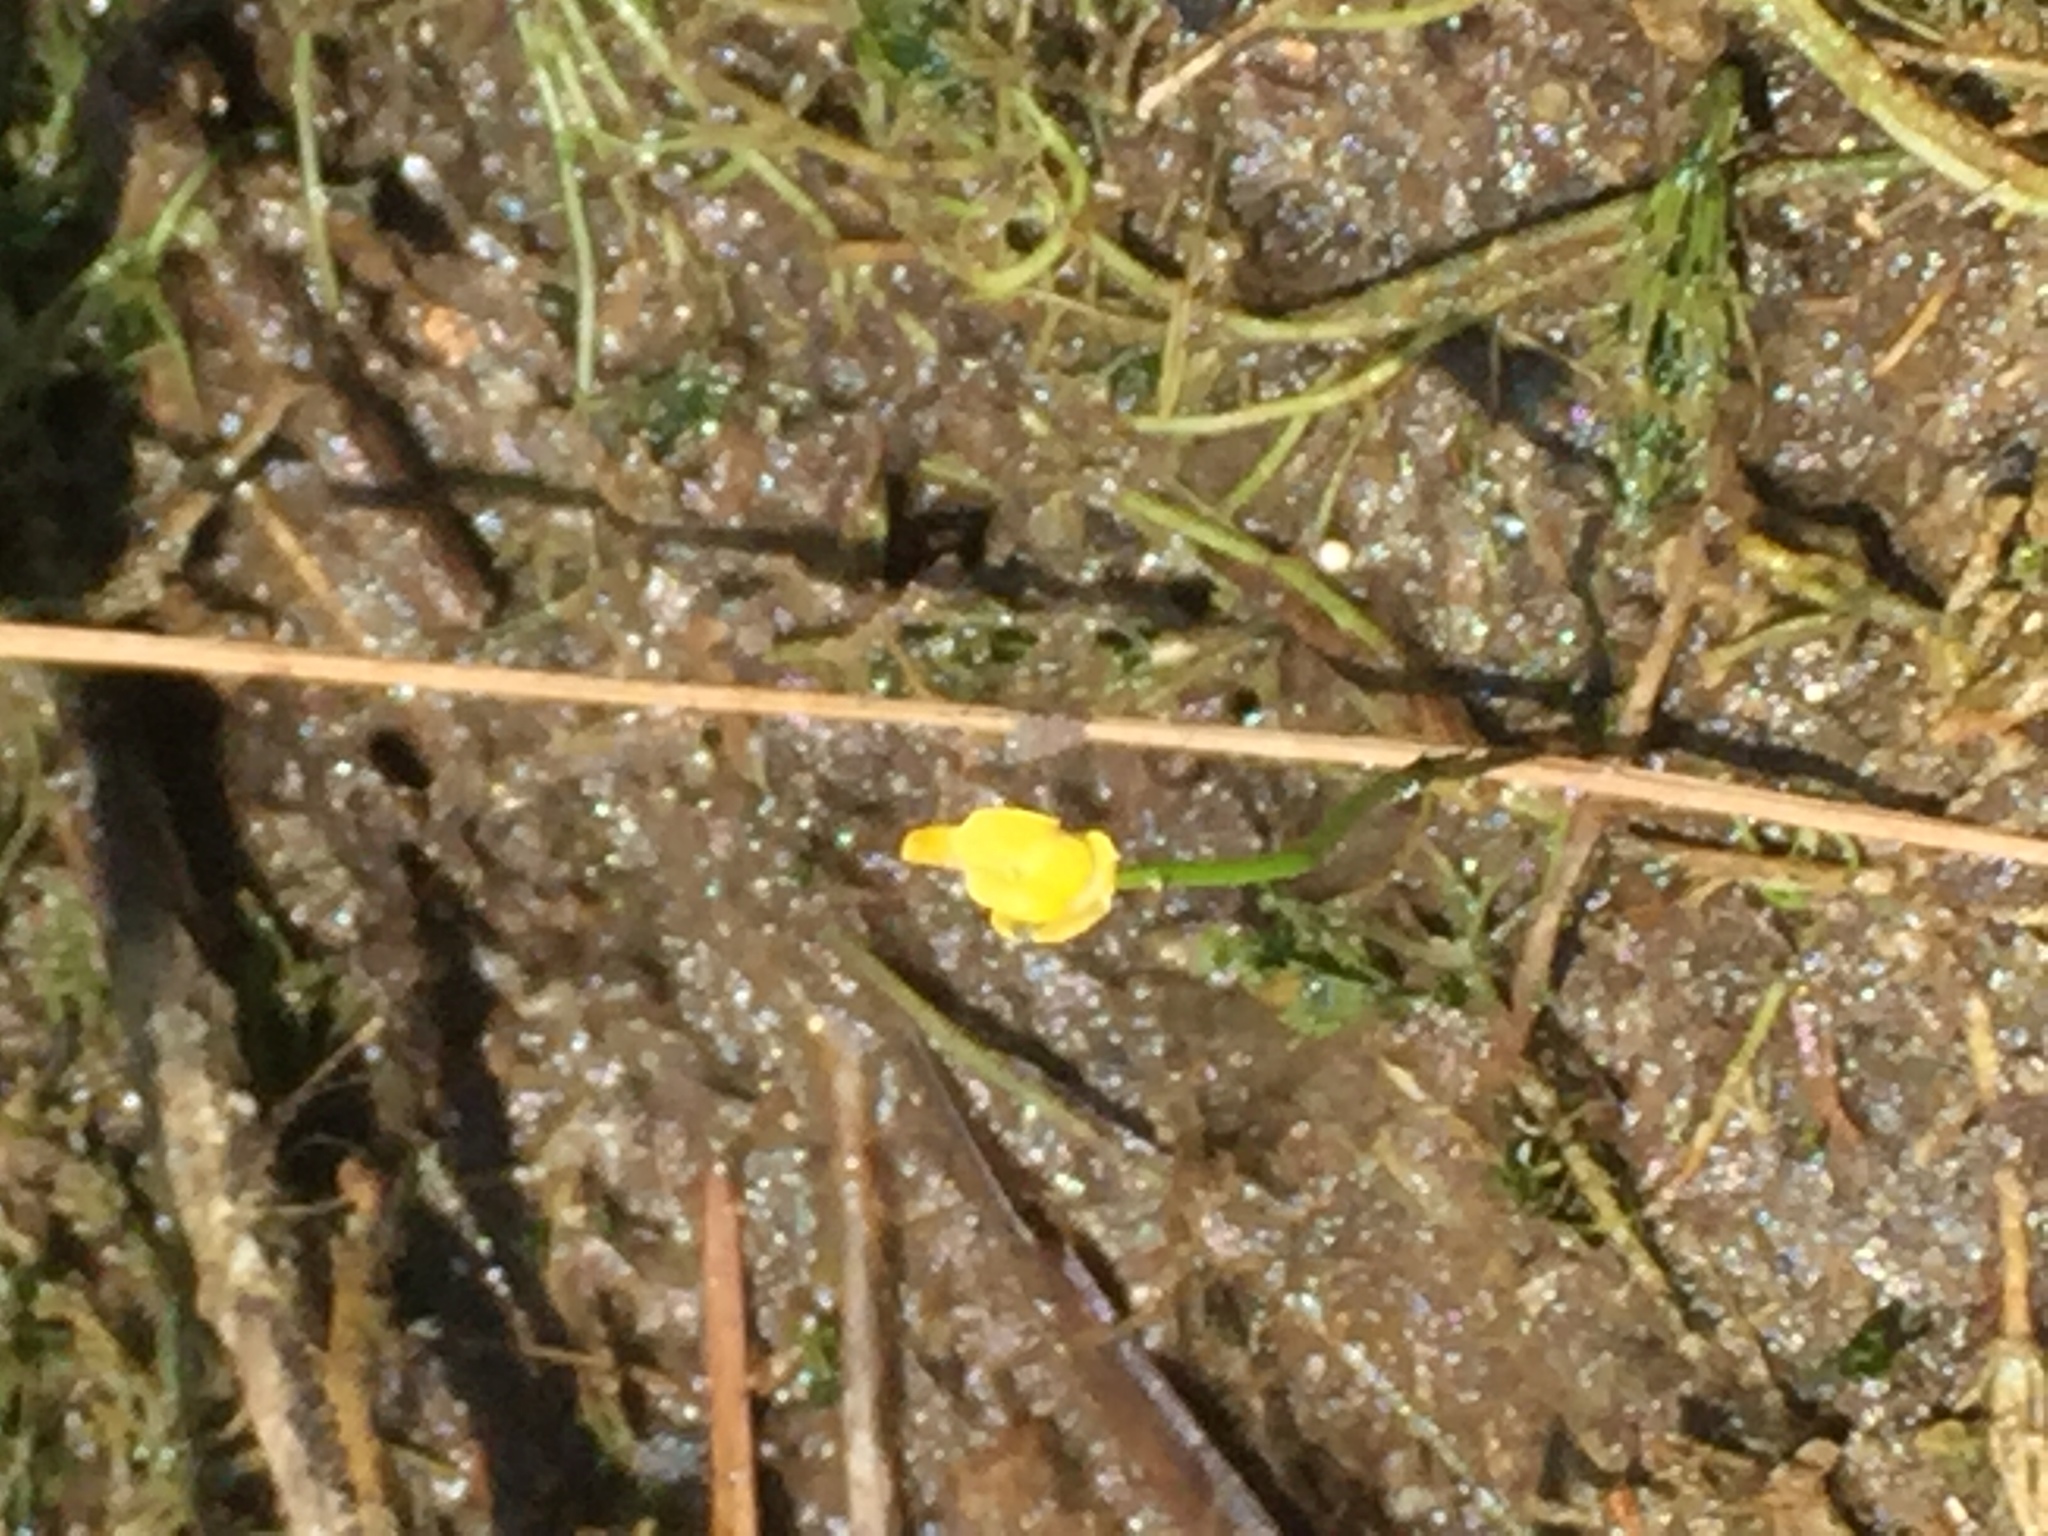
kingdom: Plantae
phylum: Tracheophyta
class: Magnoliopsida
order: Lamiales
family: Lentibulariaceae
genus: Utricularia
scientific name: Utricularia gibba
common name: Humped bladderwort
